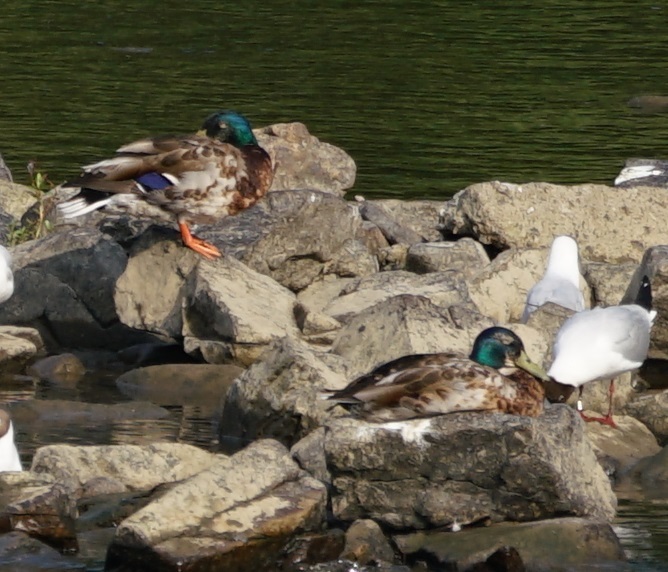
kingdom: Animalia
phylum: Chordata
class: Aves
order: Anseriformes
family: Anatidae
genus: Anas
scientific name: Anas platyrhynchos
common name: Mallard
